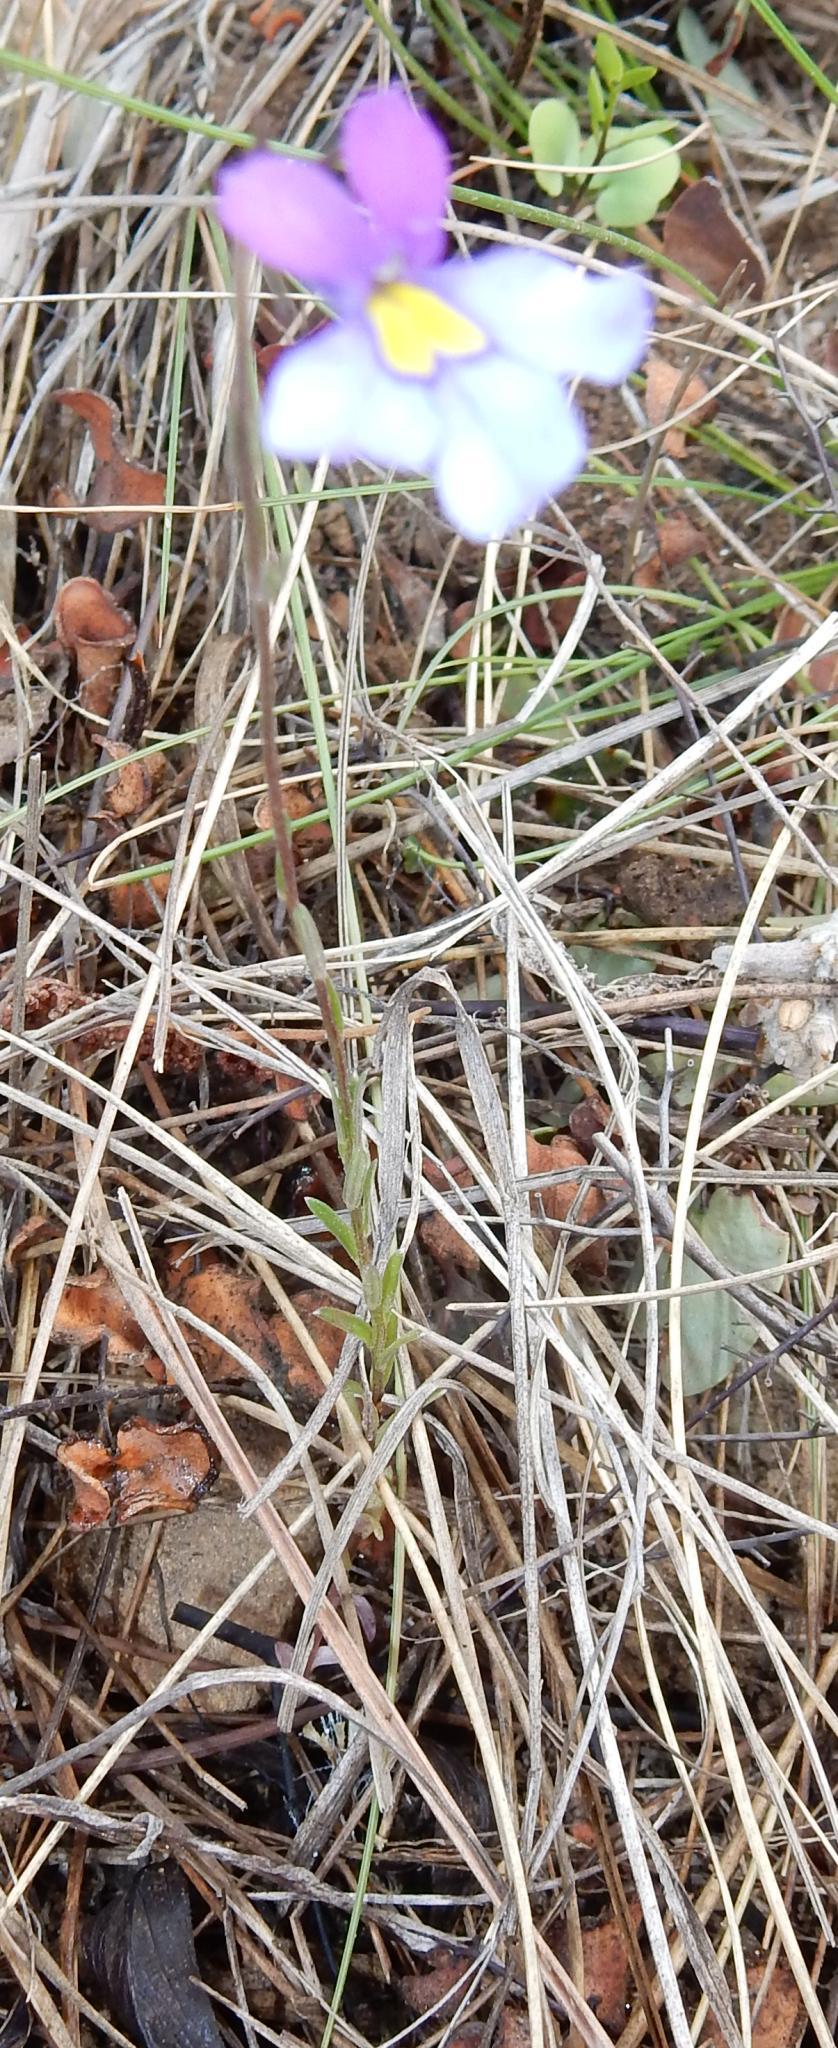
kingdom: Plantae
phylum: Tracheophyta
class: Magnoliopsida
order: Asterales
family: Campanulaceae
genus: Monopsis
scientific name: Monopsis decipiens
